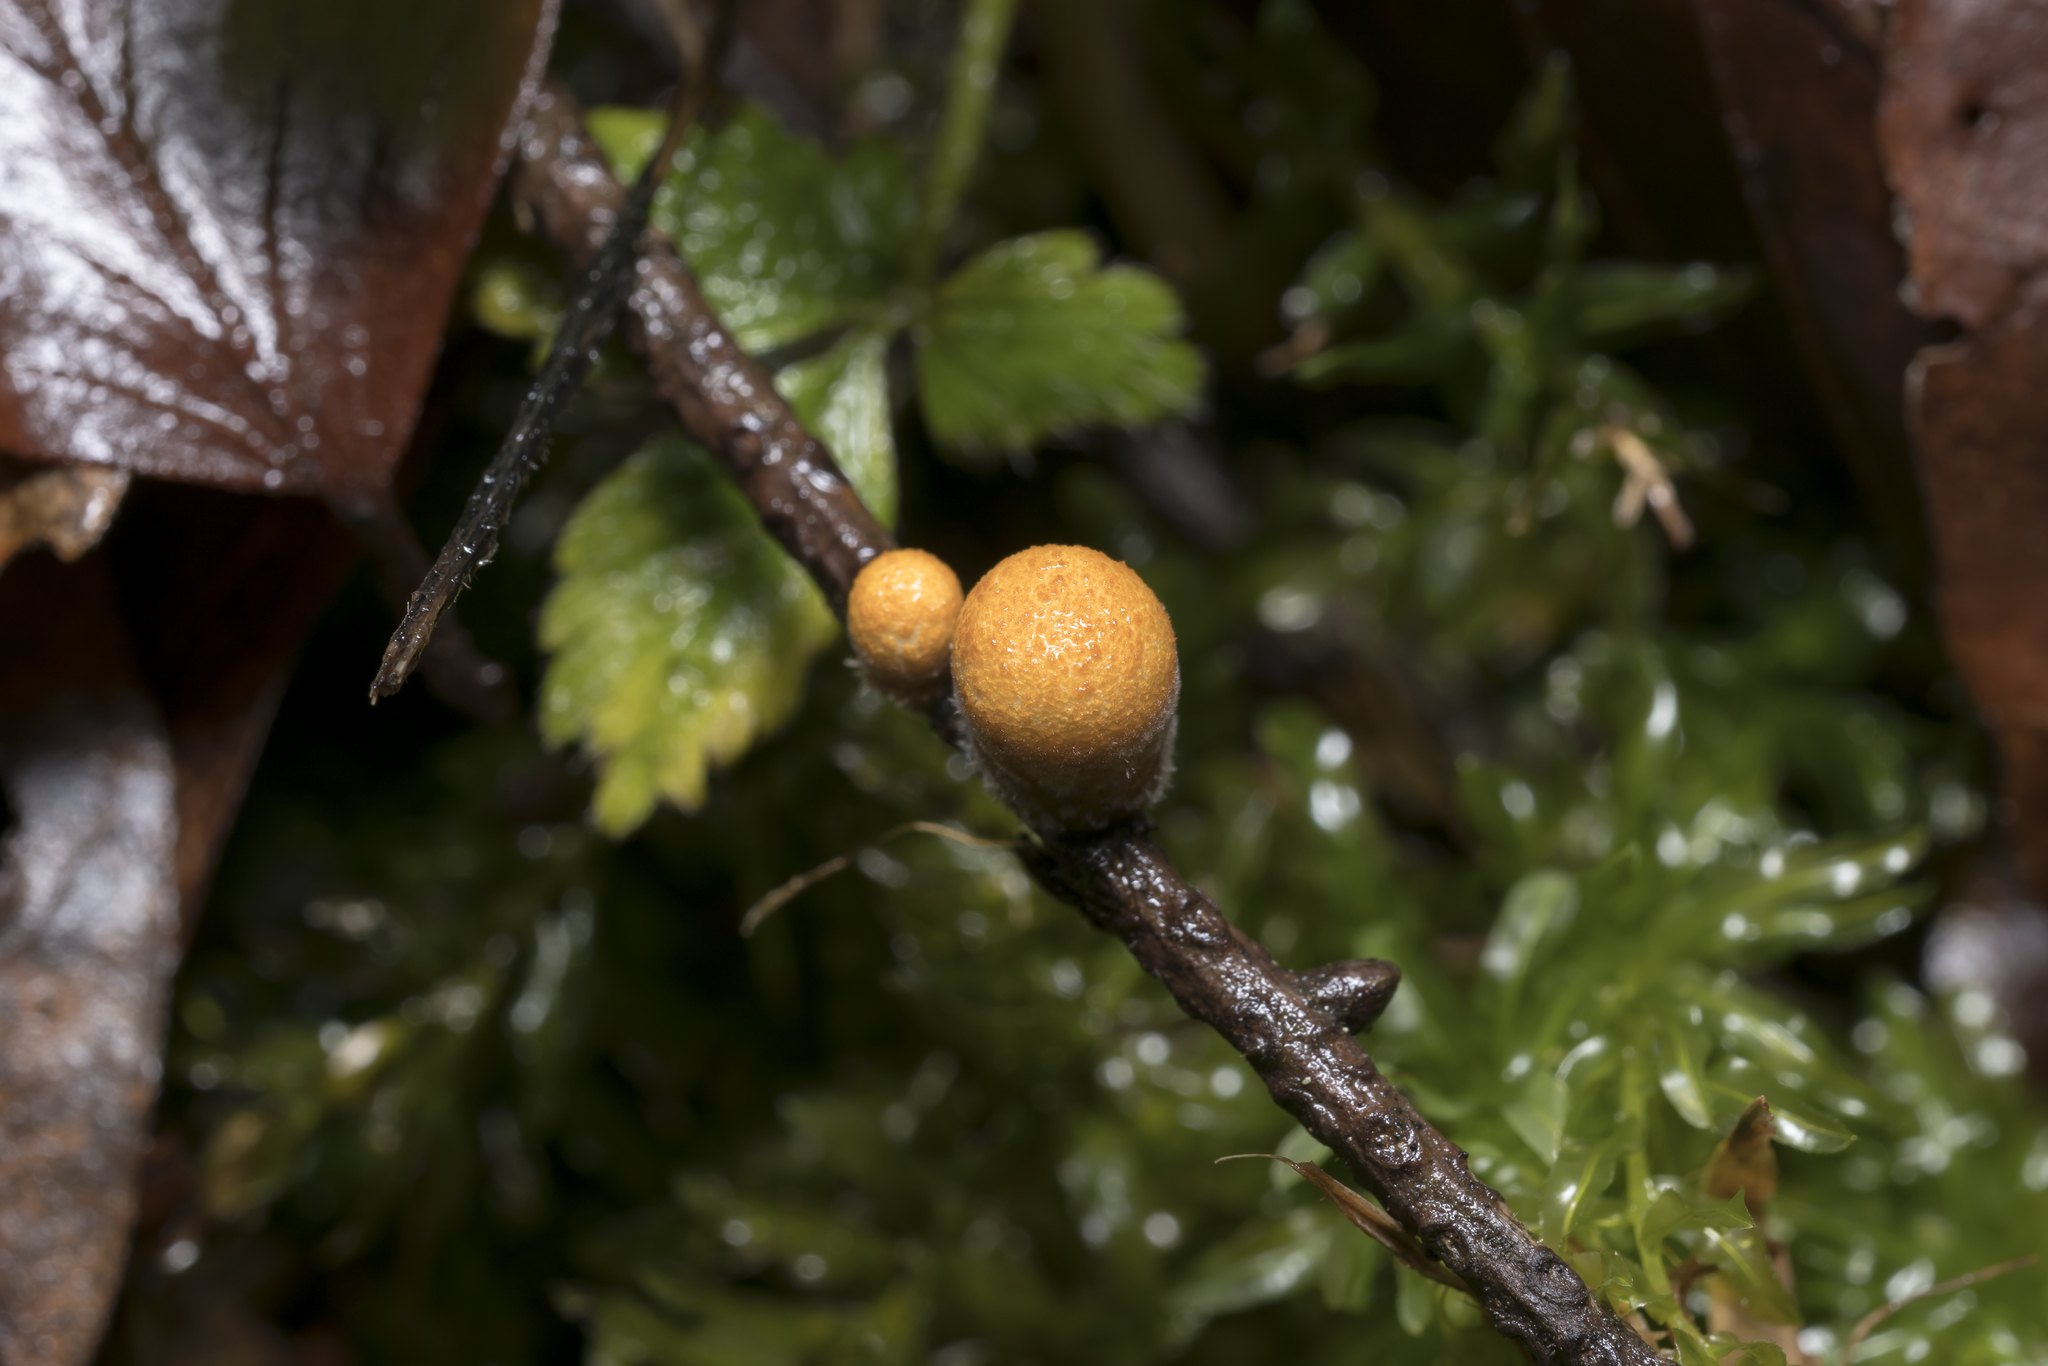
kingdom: Fungi
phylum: Basidiomycota
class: Agaricomycetes
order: Agaricales
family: Nidulariaceae
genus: Crucibulum
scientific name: Crucibulum laeve
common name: Common bird's nest
